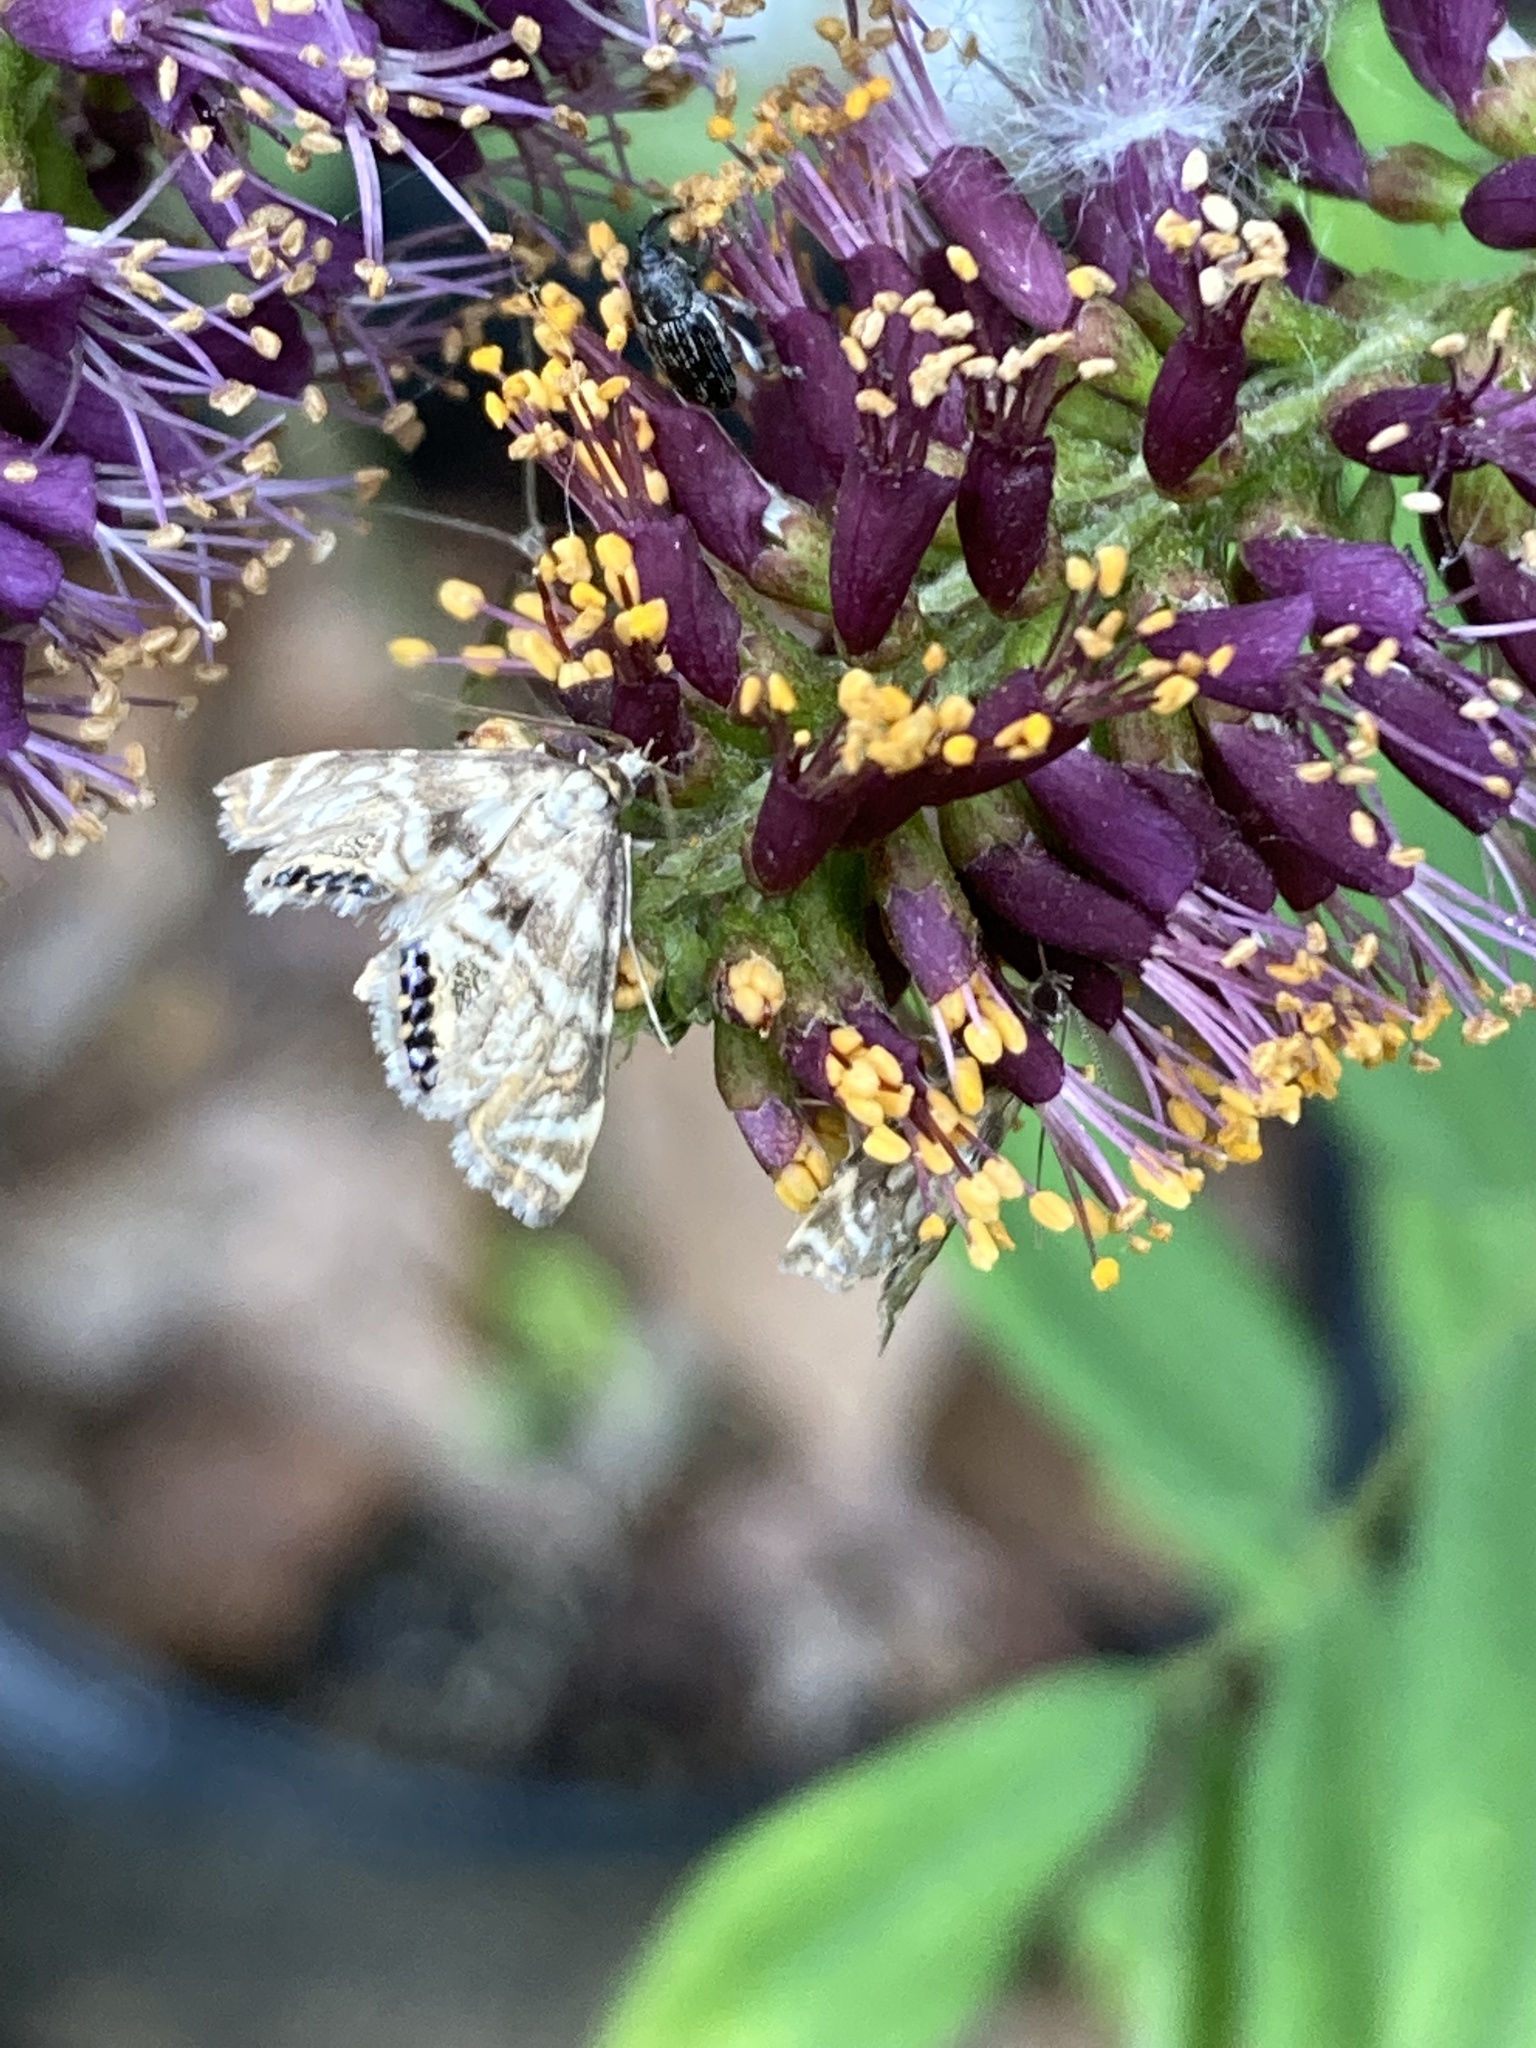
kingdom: Animalia
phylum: Arthropoda
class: Insecta
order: Lepidoptera
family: Crambidae
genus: Petrophila
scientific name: Petrophila canadensis
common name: Canadian petrophila
